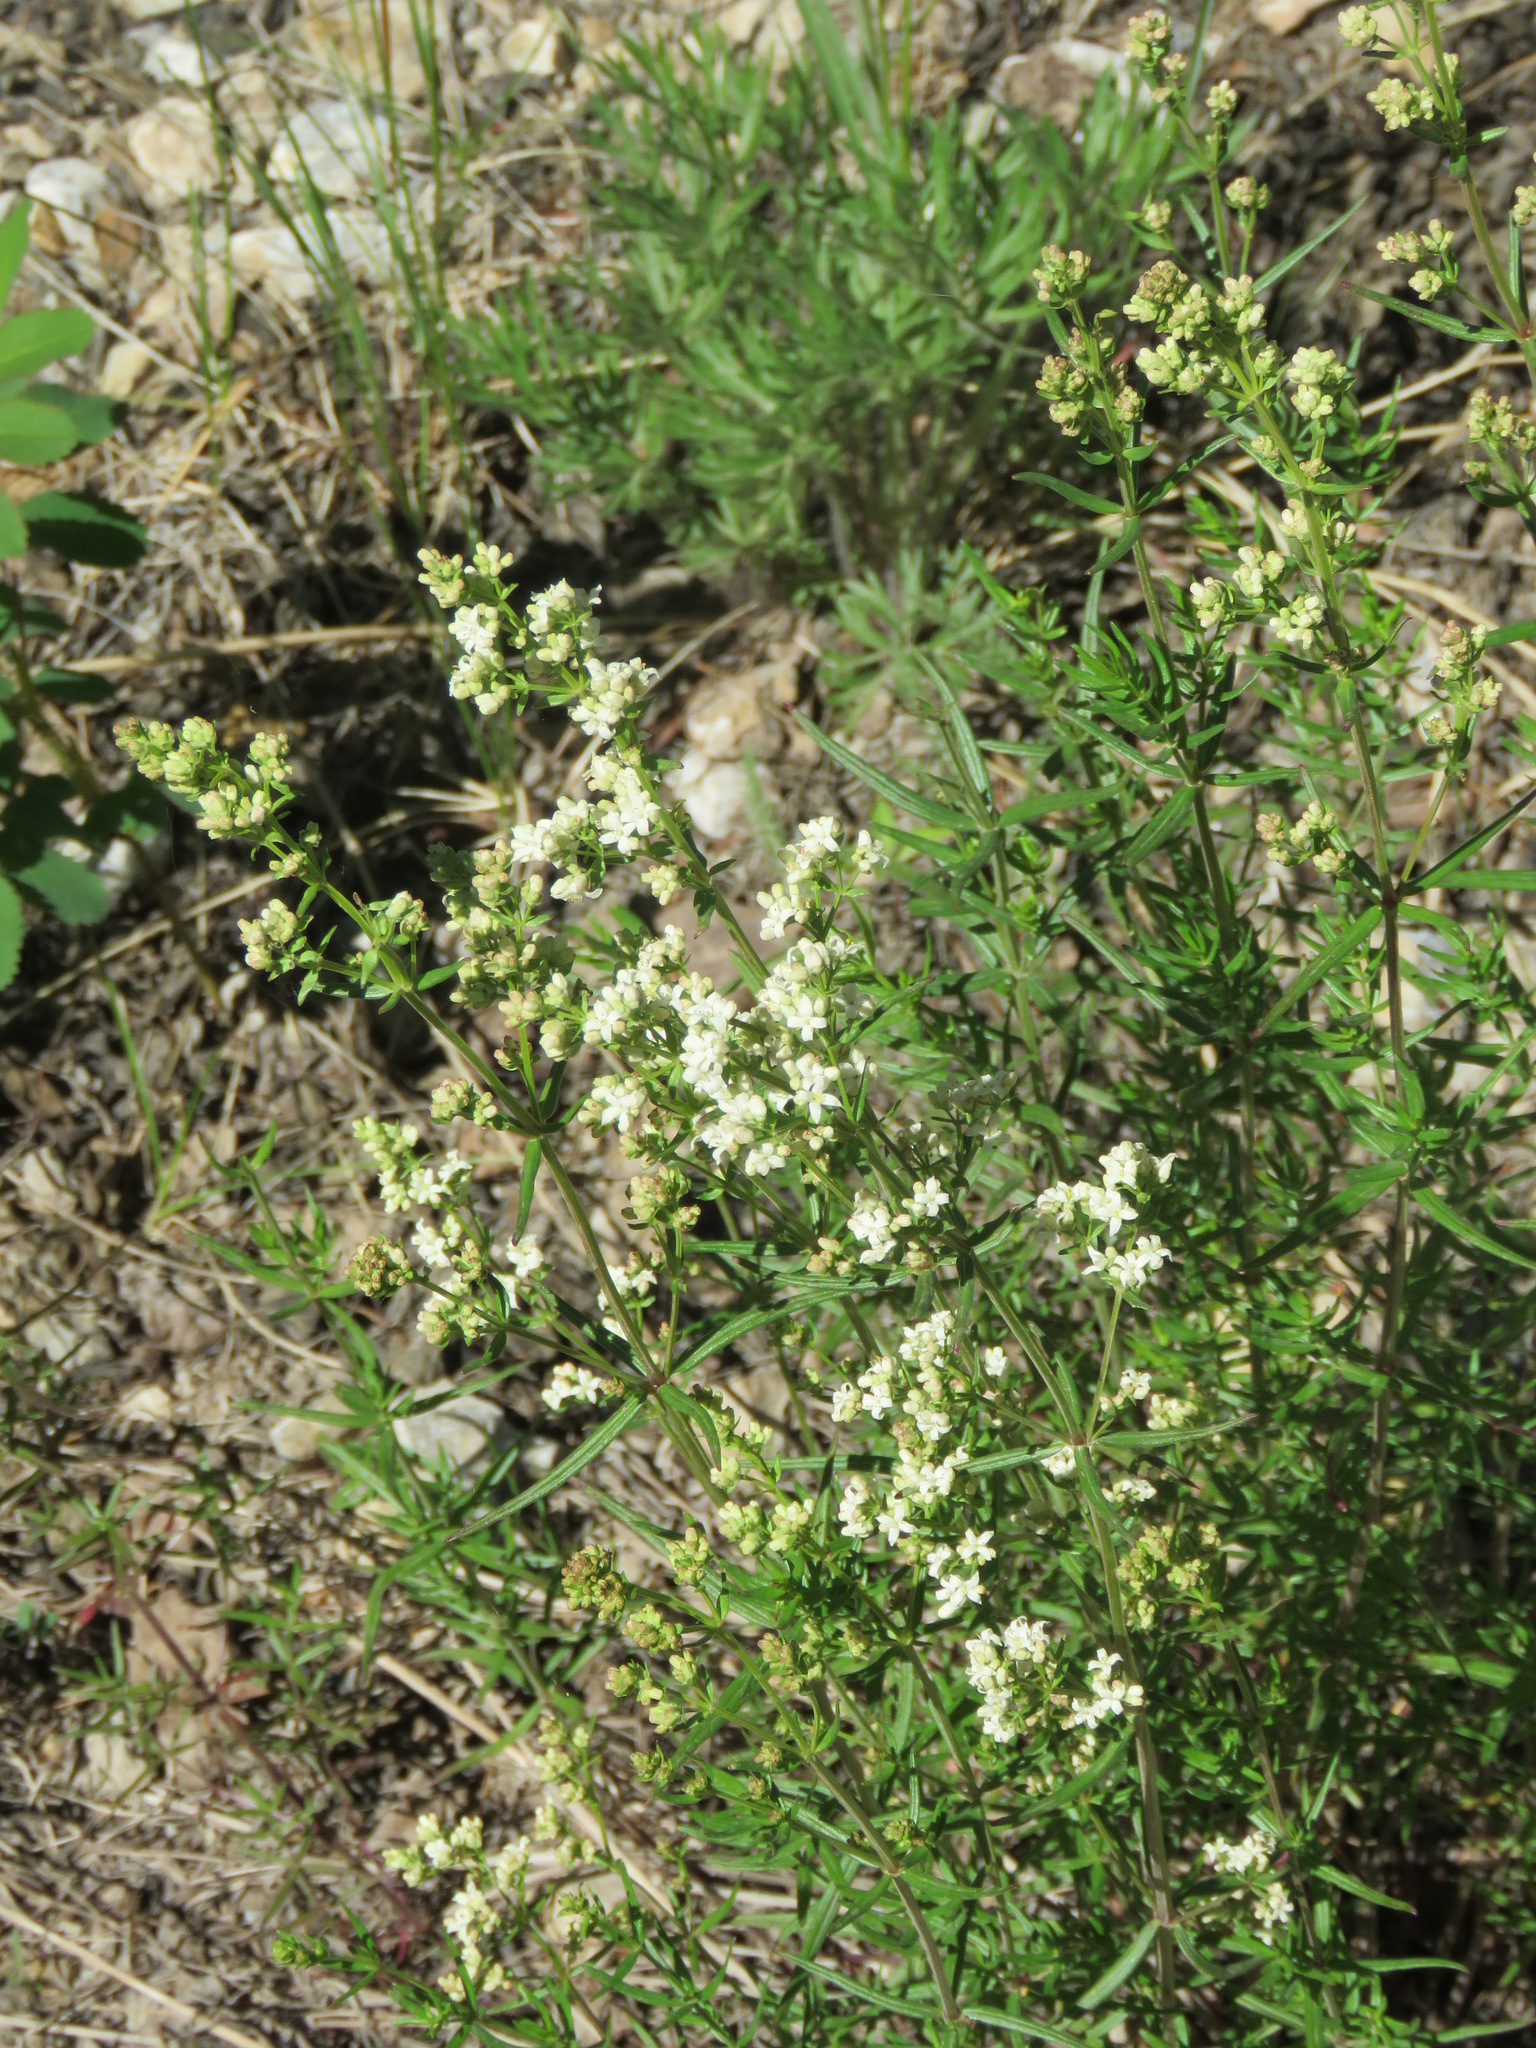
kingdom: Plantae
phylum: Tracheophyta
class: Magnoliopsida
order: Gentianales
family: Rubiaceae
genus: Galium
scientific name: Galium boreale
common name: Northern bedstraw
